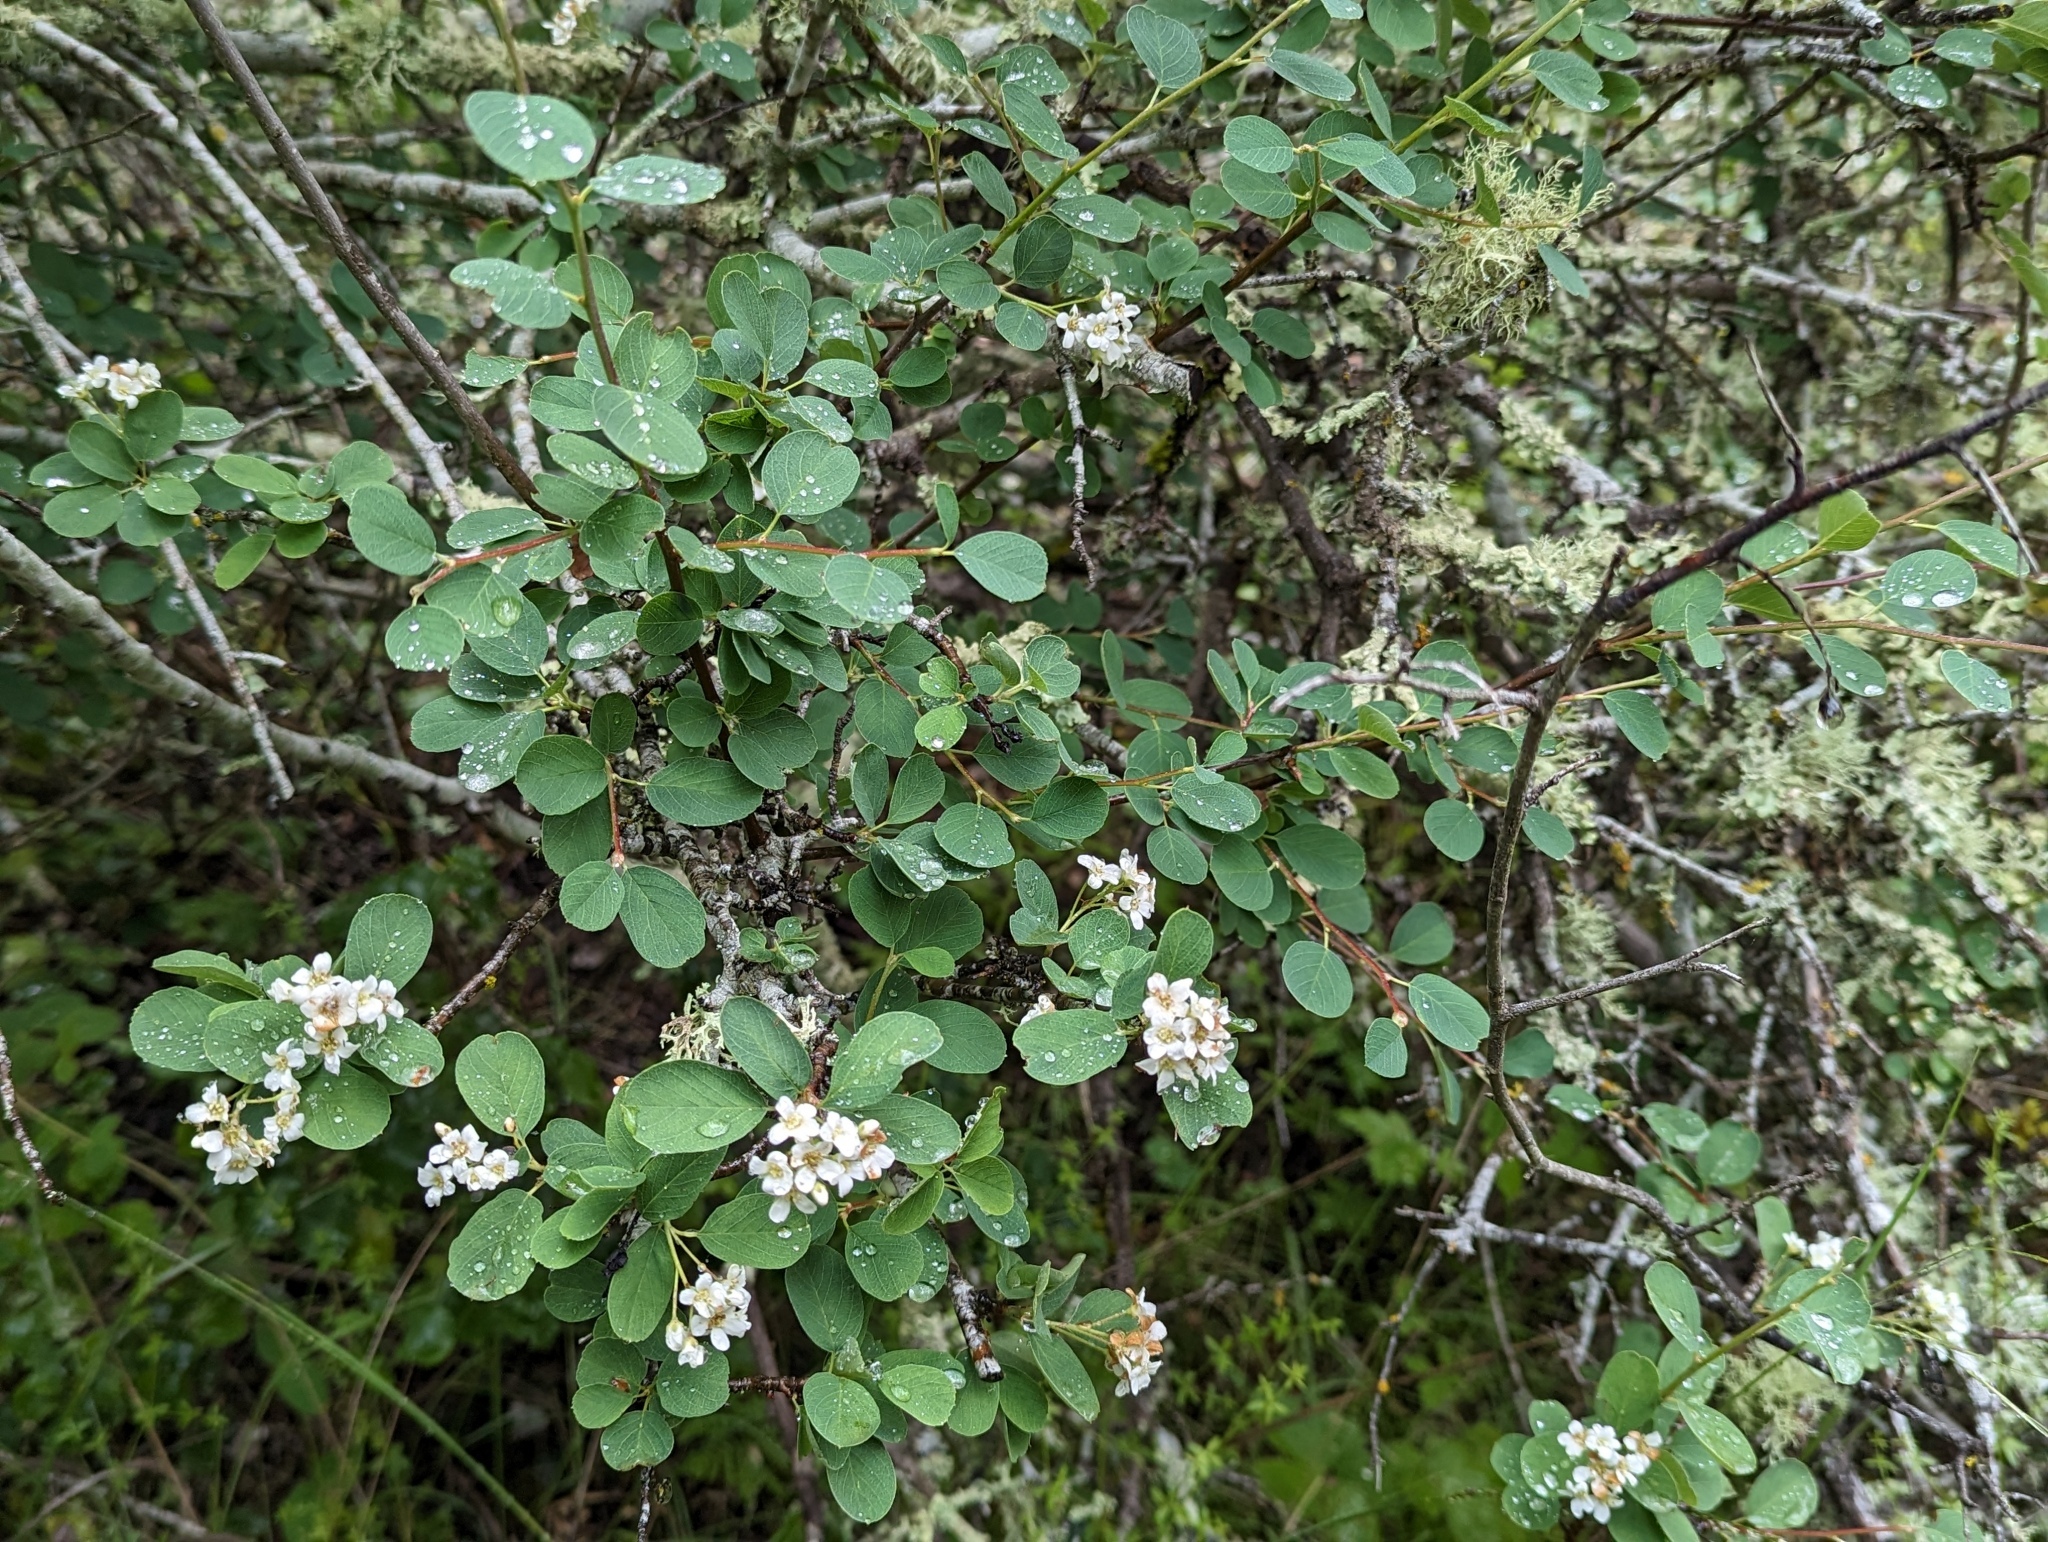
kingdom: Plantae
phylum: Tracheophyta
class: Magnoliopsida
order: Rosales
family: Rosaceae
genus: Amelanchier
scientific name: Amelanchier utahensis
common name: Utah serviceberry
